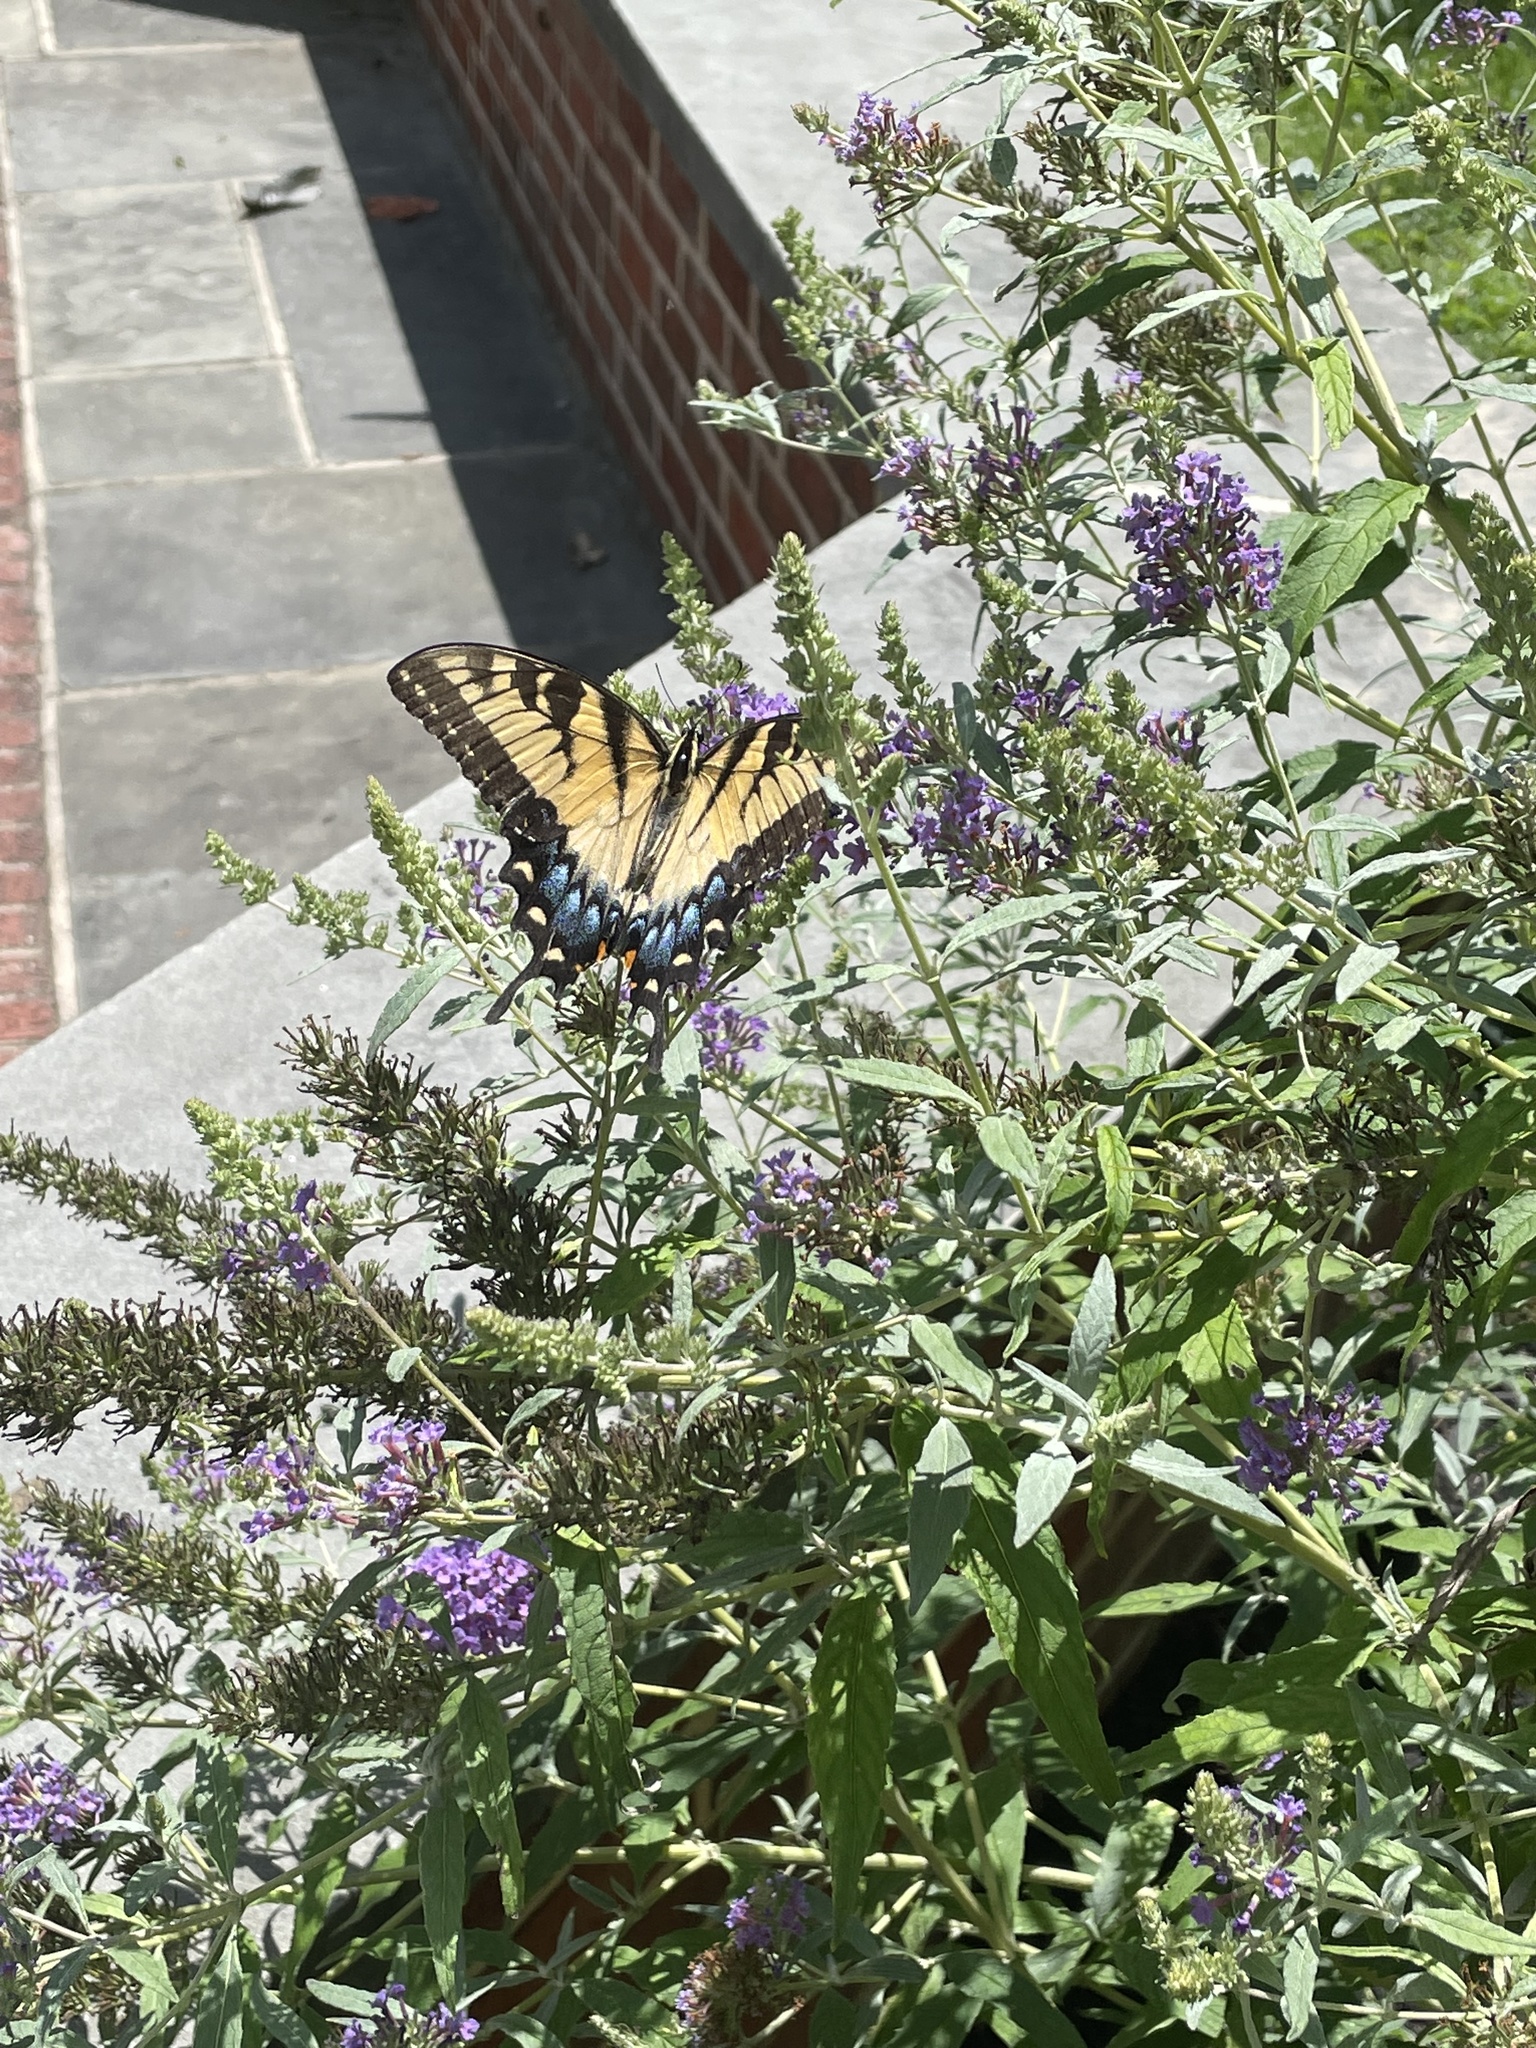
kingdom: Animalia
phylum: Arthropoda
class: Insecta
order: Lepidoptera
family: Papilionidae
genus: Papilio
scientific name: Papilio glaucus
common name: Tiger swallowtail
